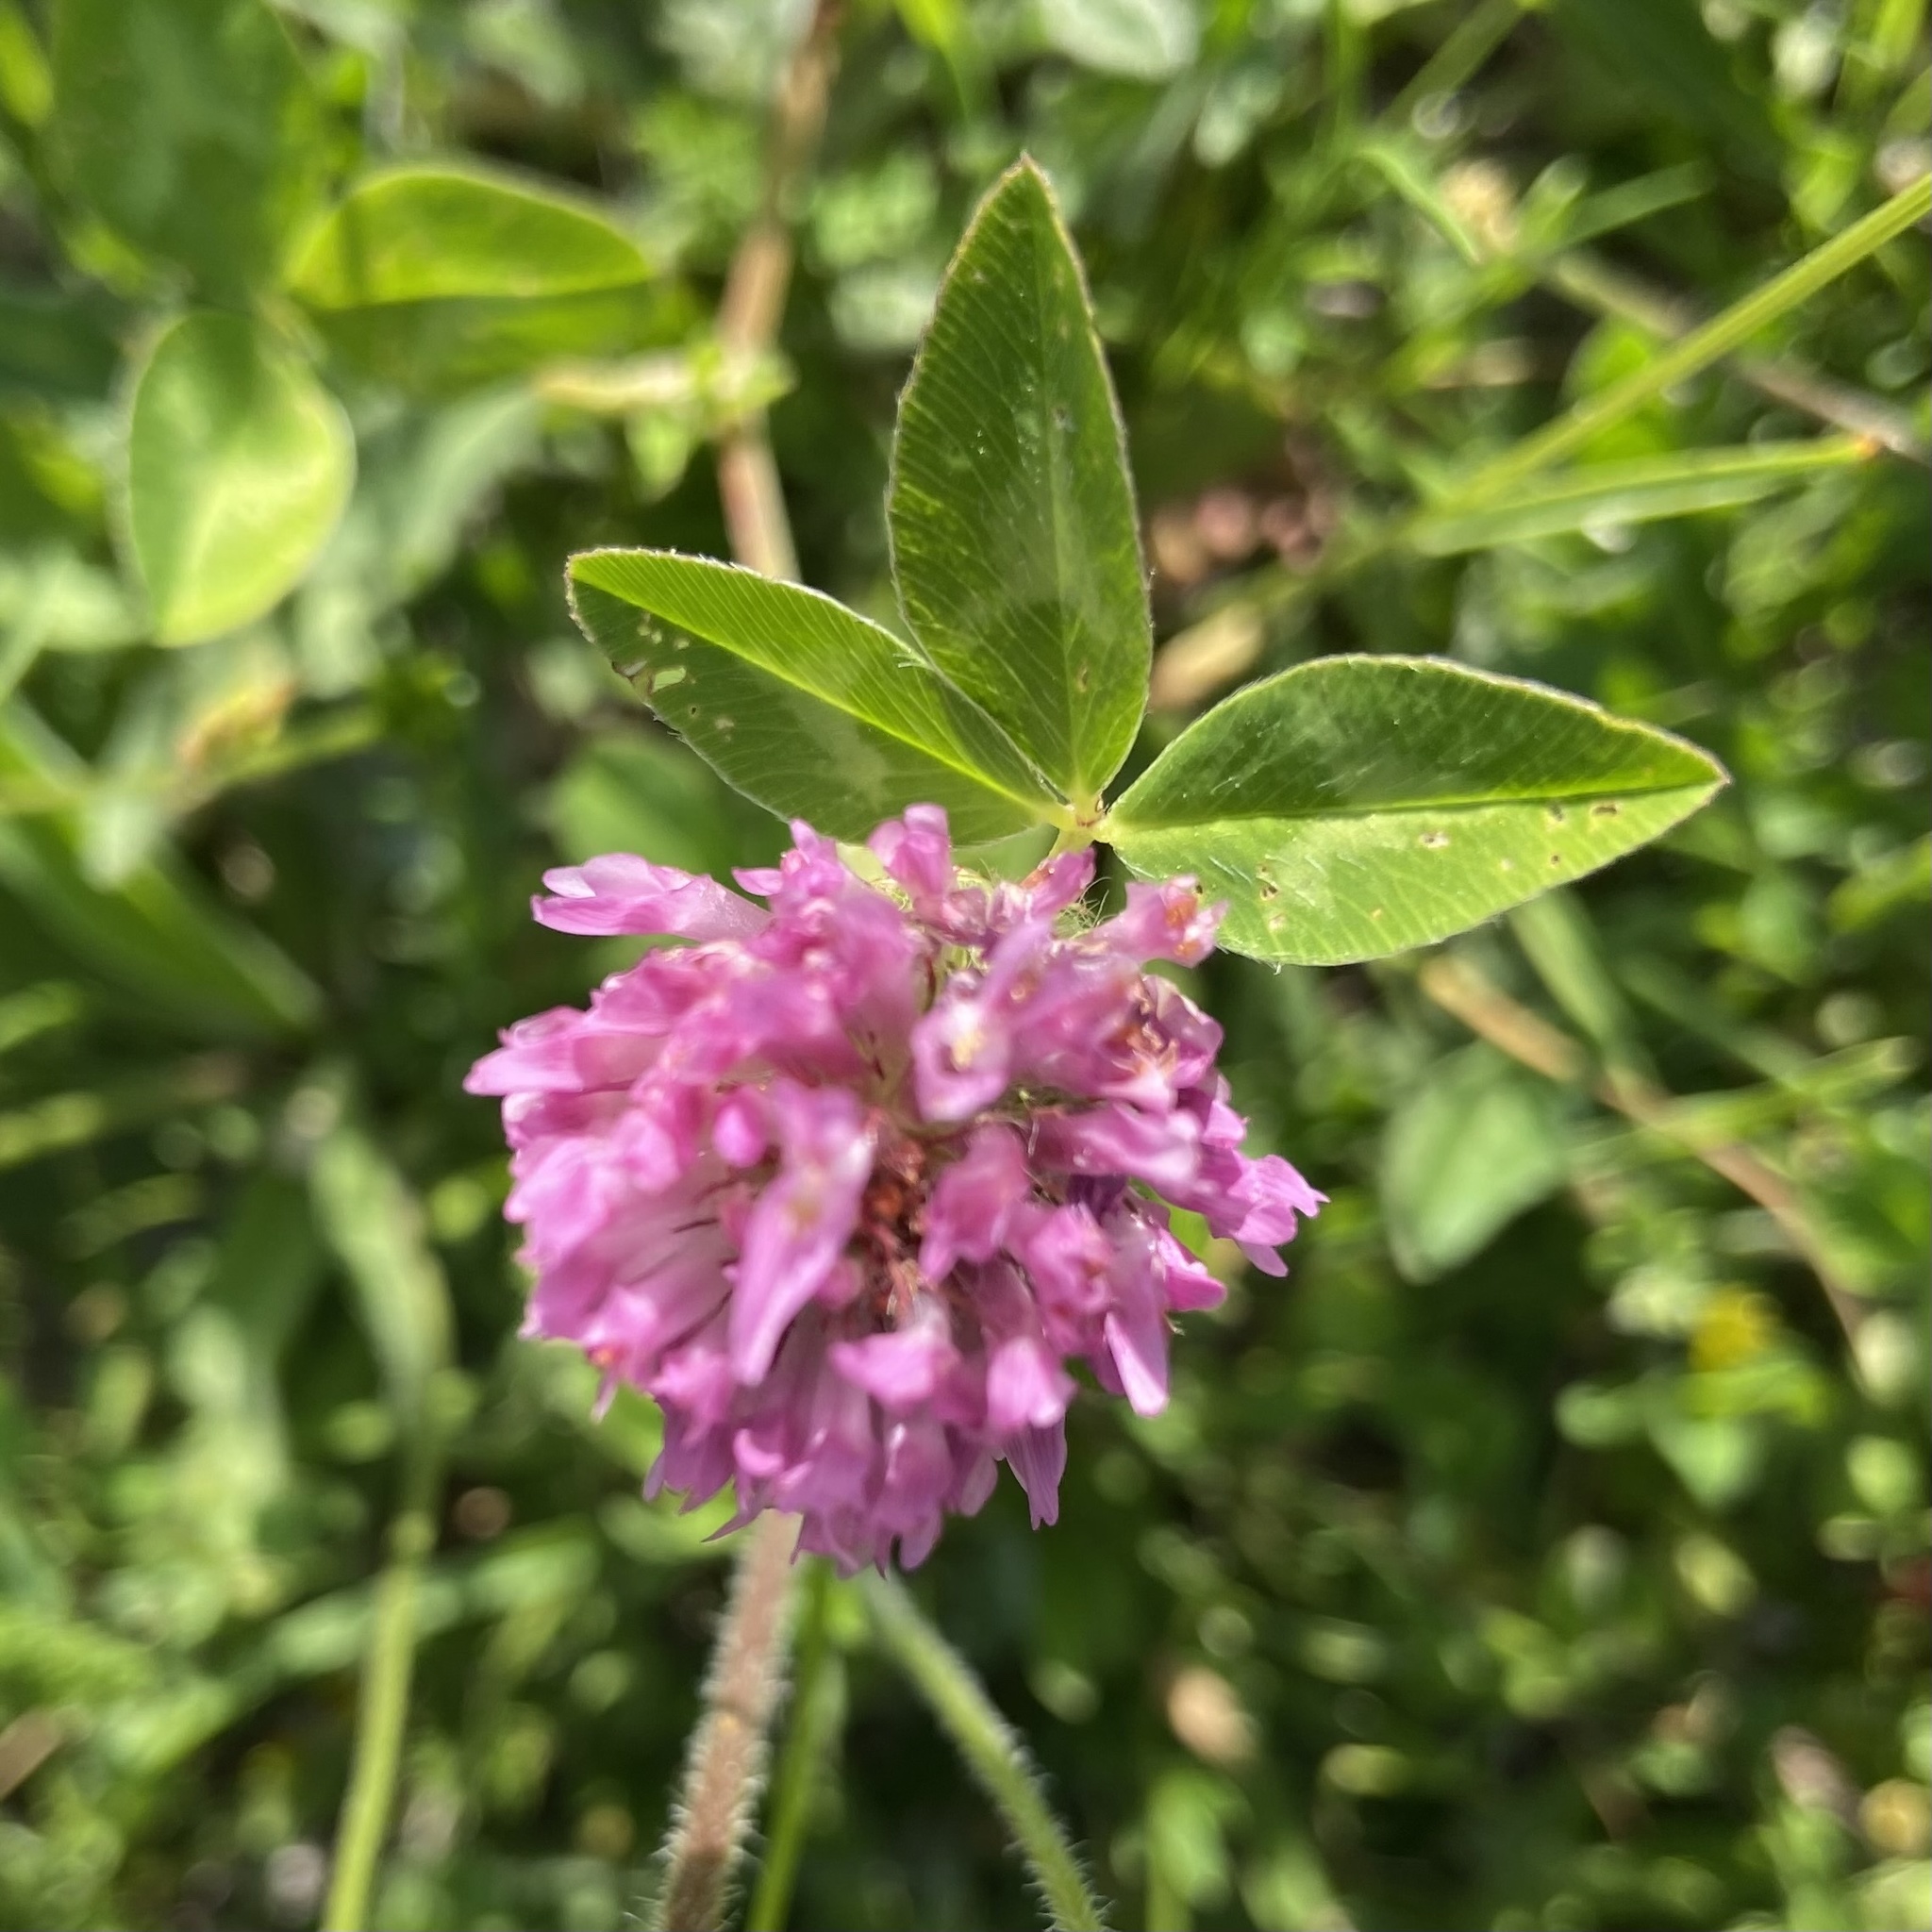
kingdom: Plantae
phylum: Tracheophyta
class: Magnoliopsida
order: Fabales
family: Fabaceae
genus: Trifolium
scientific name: Trifolium pratense
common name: Red clover
